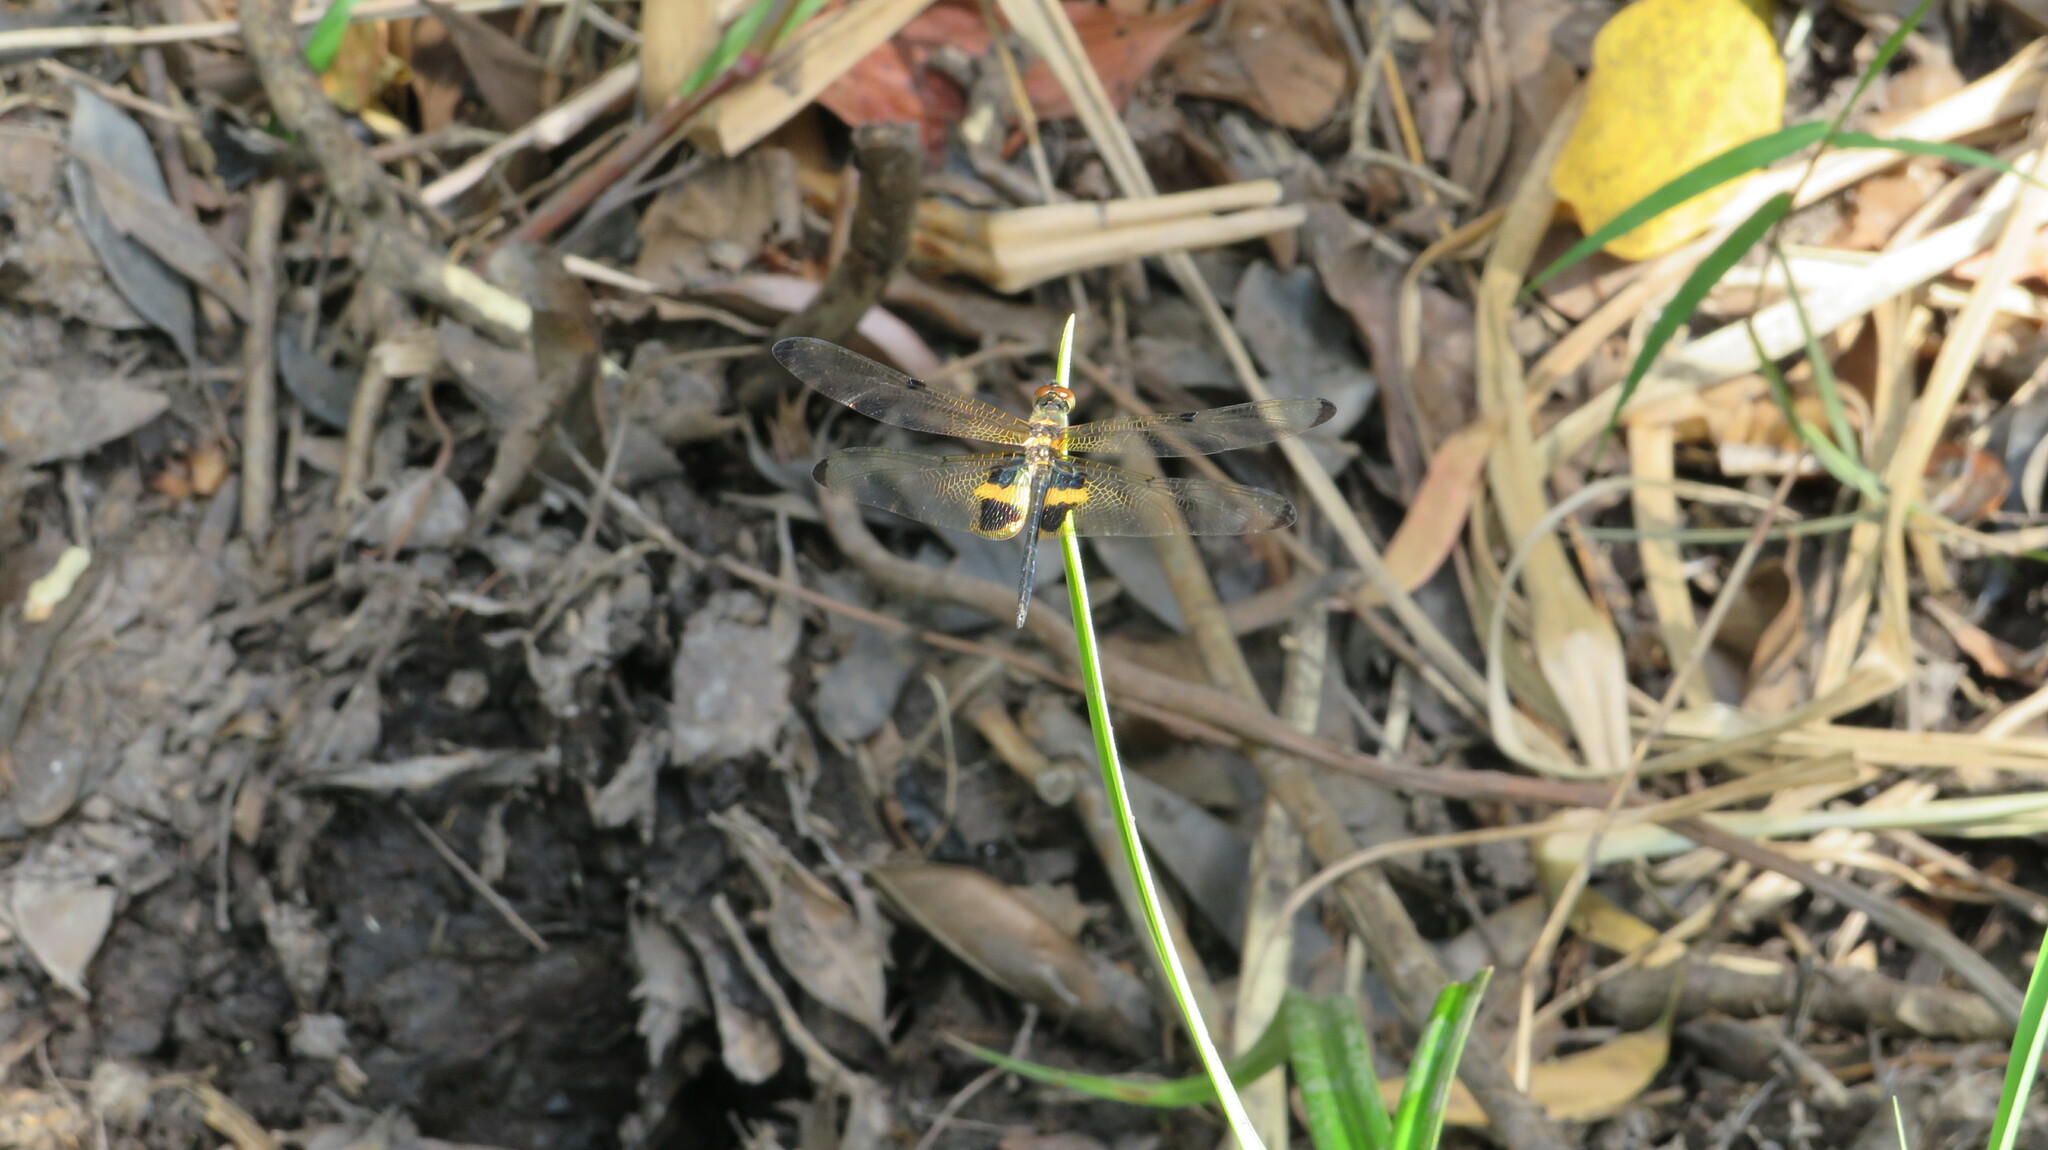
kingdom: Animalia
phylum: Arthropoda
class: Insecta
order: Odonata
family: Libellulidae
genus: Rhyothemis
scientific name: Rhyothemis phyllis
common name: Yellow-barred flutterer
